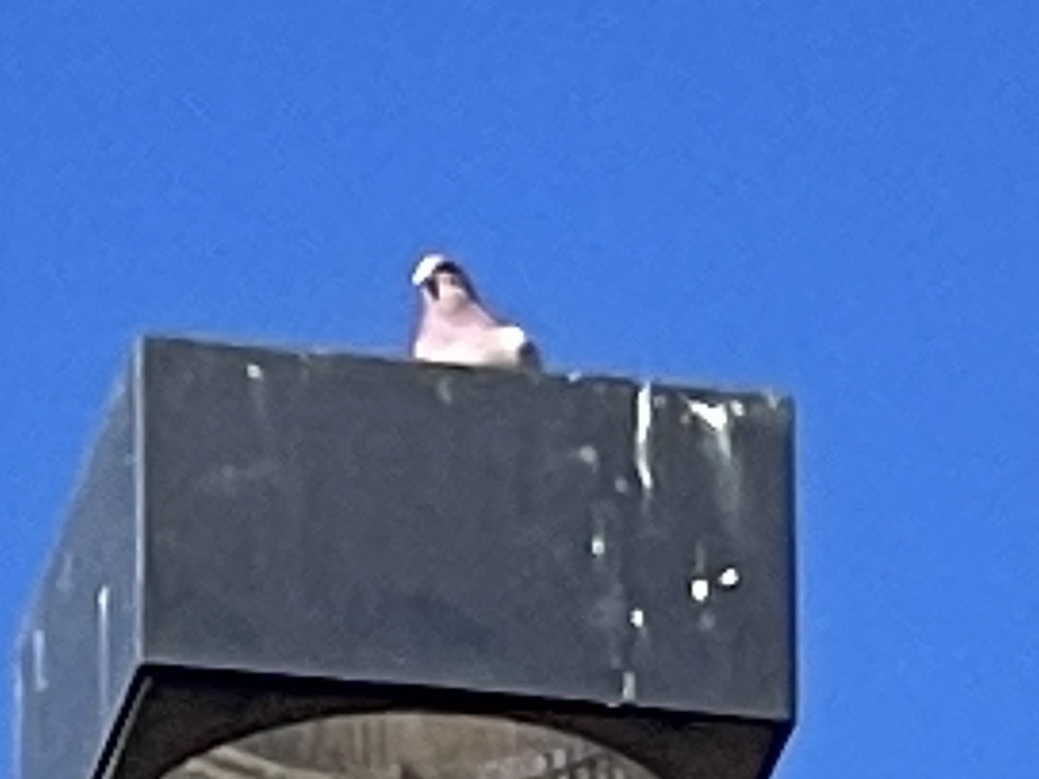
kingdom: Animalia
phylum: Chordata
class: Aves
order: Columbiformes
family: Columbidae
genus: Columba
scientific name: Columba livia
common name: Rock pigeon
